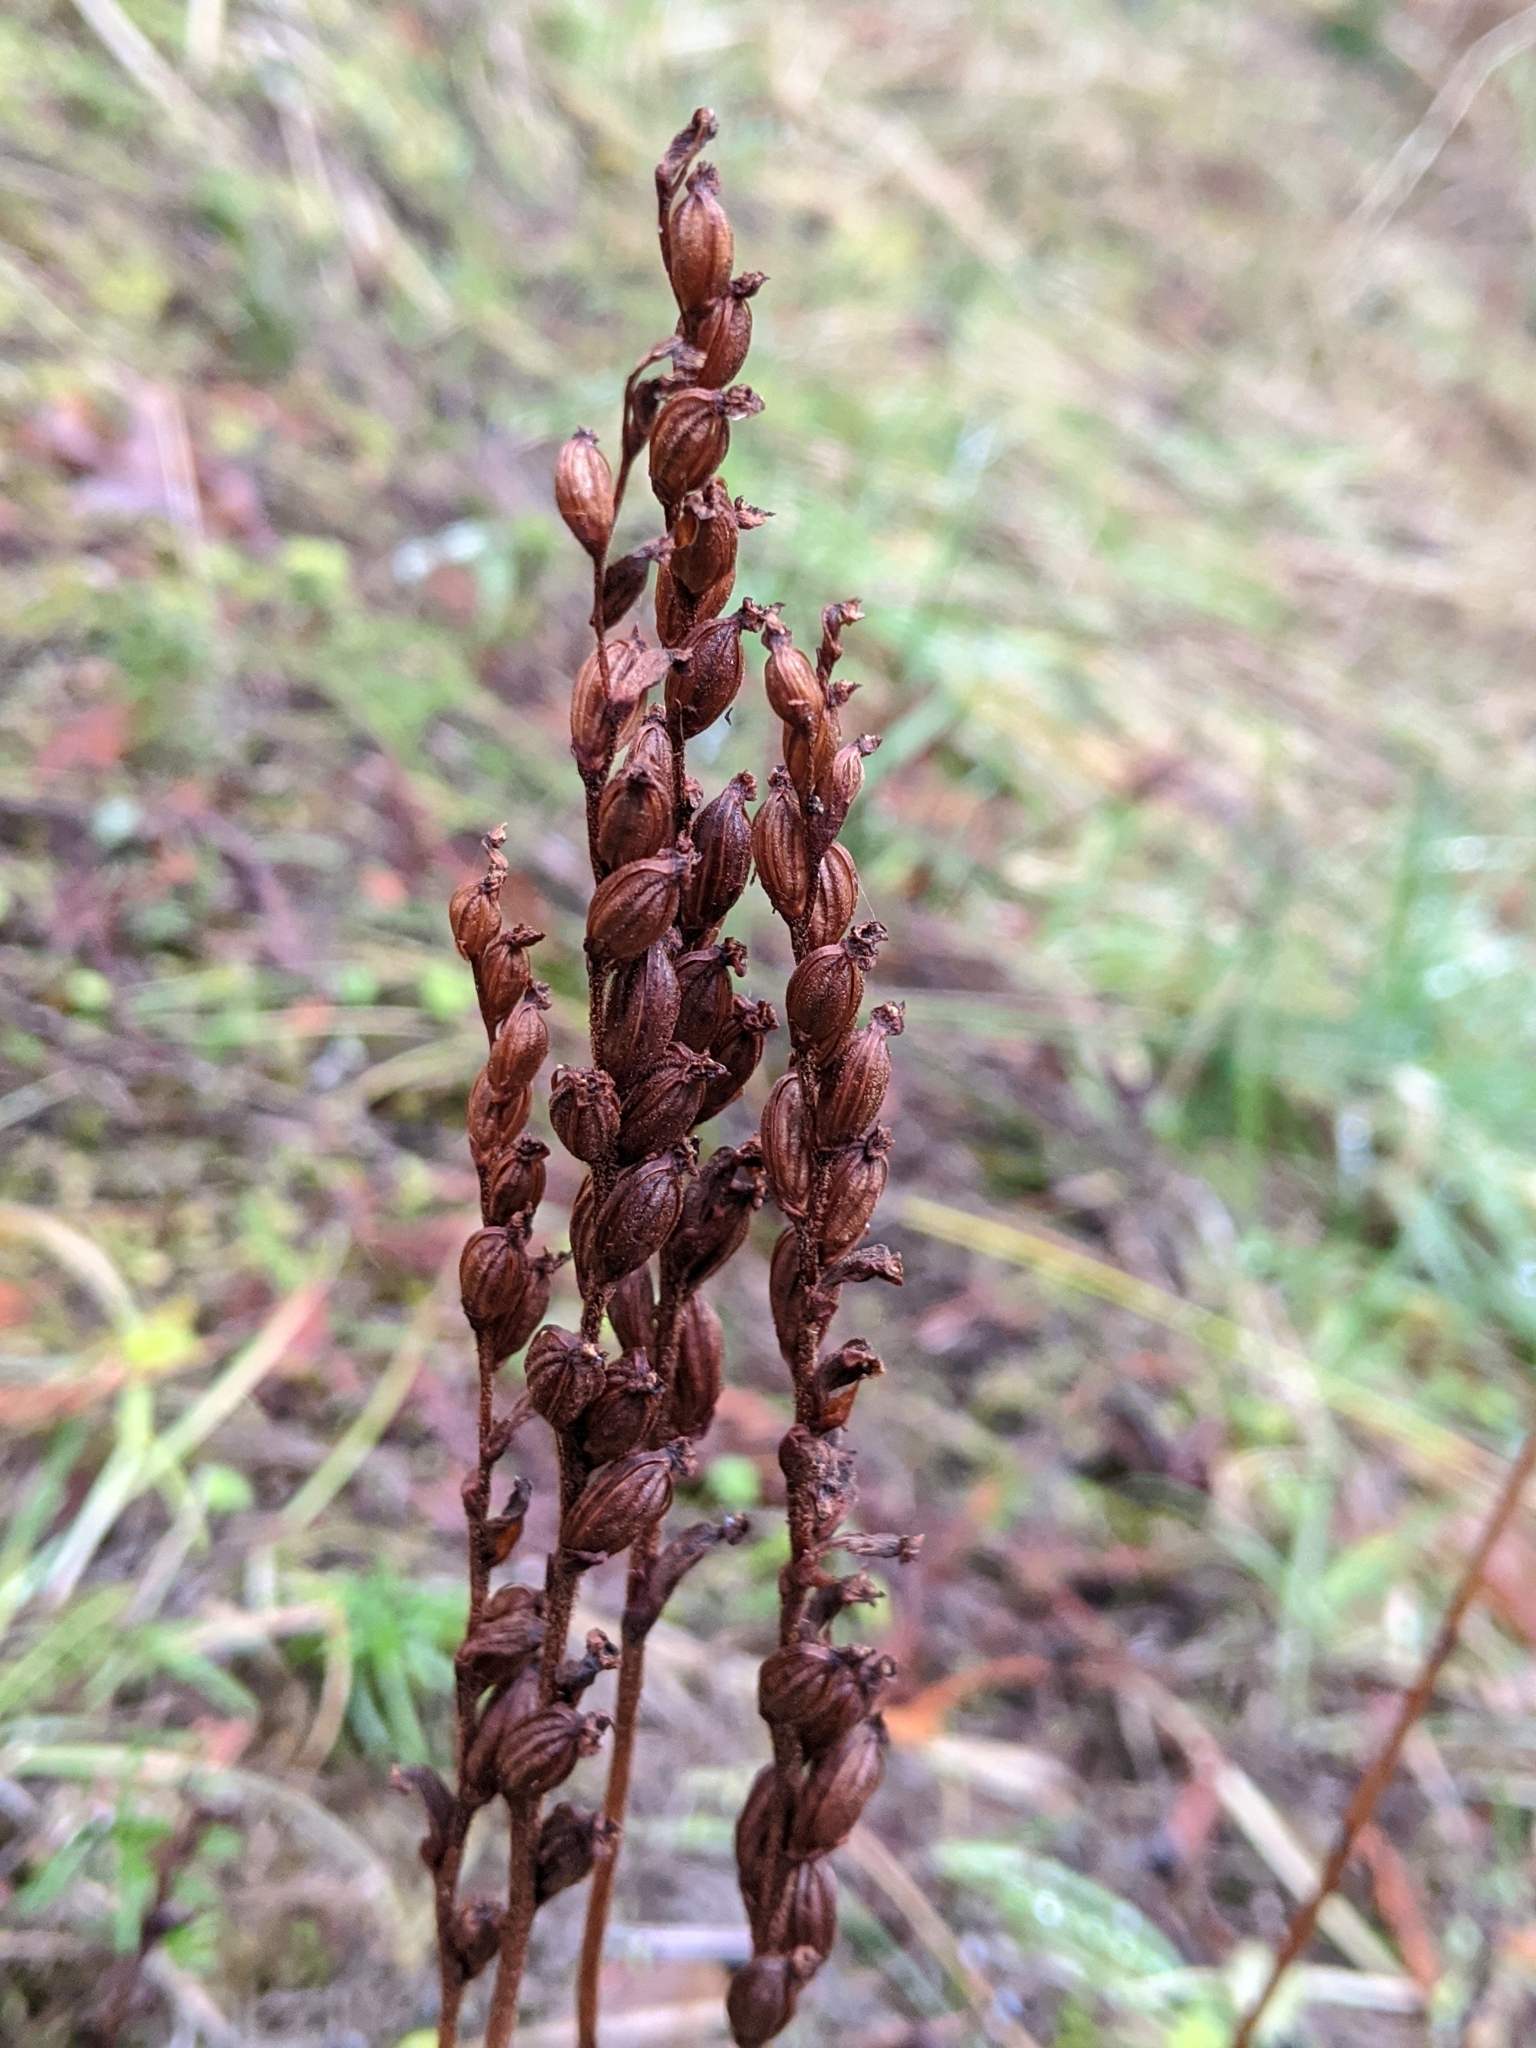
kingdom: Plantae
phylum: Tracheophyta
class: Liliopsida
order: Asparagales
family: Orchidaceae
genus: Goodyera
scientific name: Goodyera oblongifolia
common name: Giant rattlesnake-plantain
